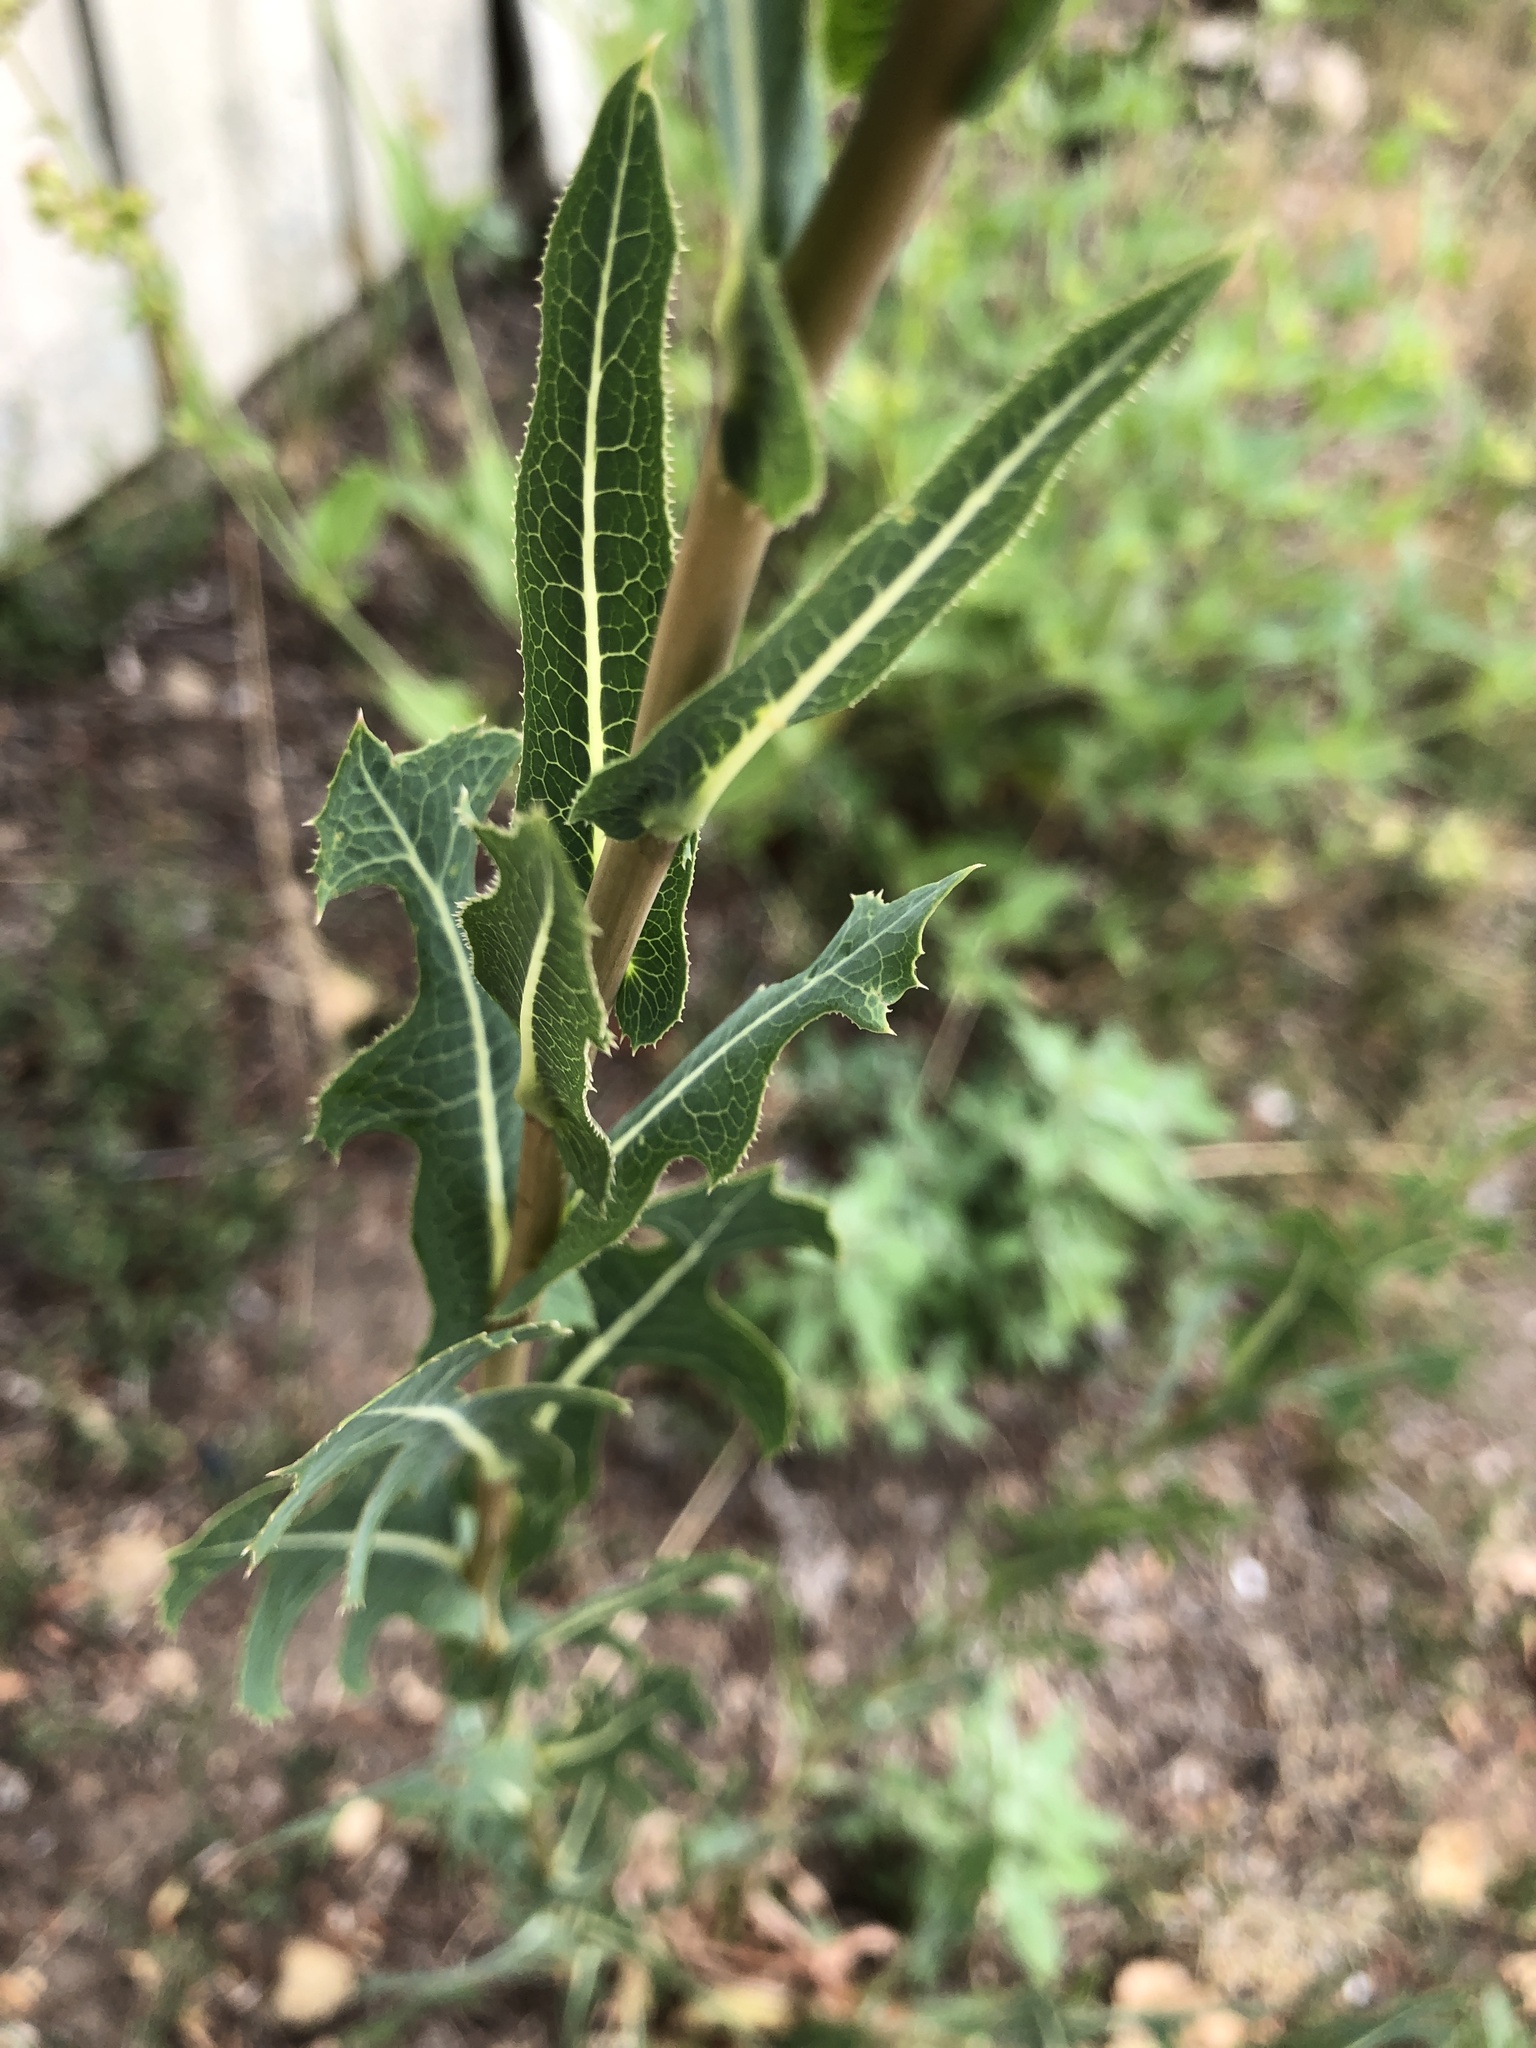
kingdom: Plantae
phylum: Tracheophyta
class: Magnoliopsida
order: Asterales
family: Asteraceae
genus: Lactuca
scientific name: Lactuca serriola
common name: Prickly lettuce
